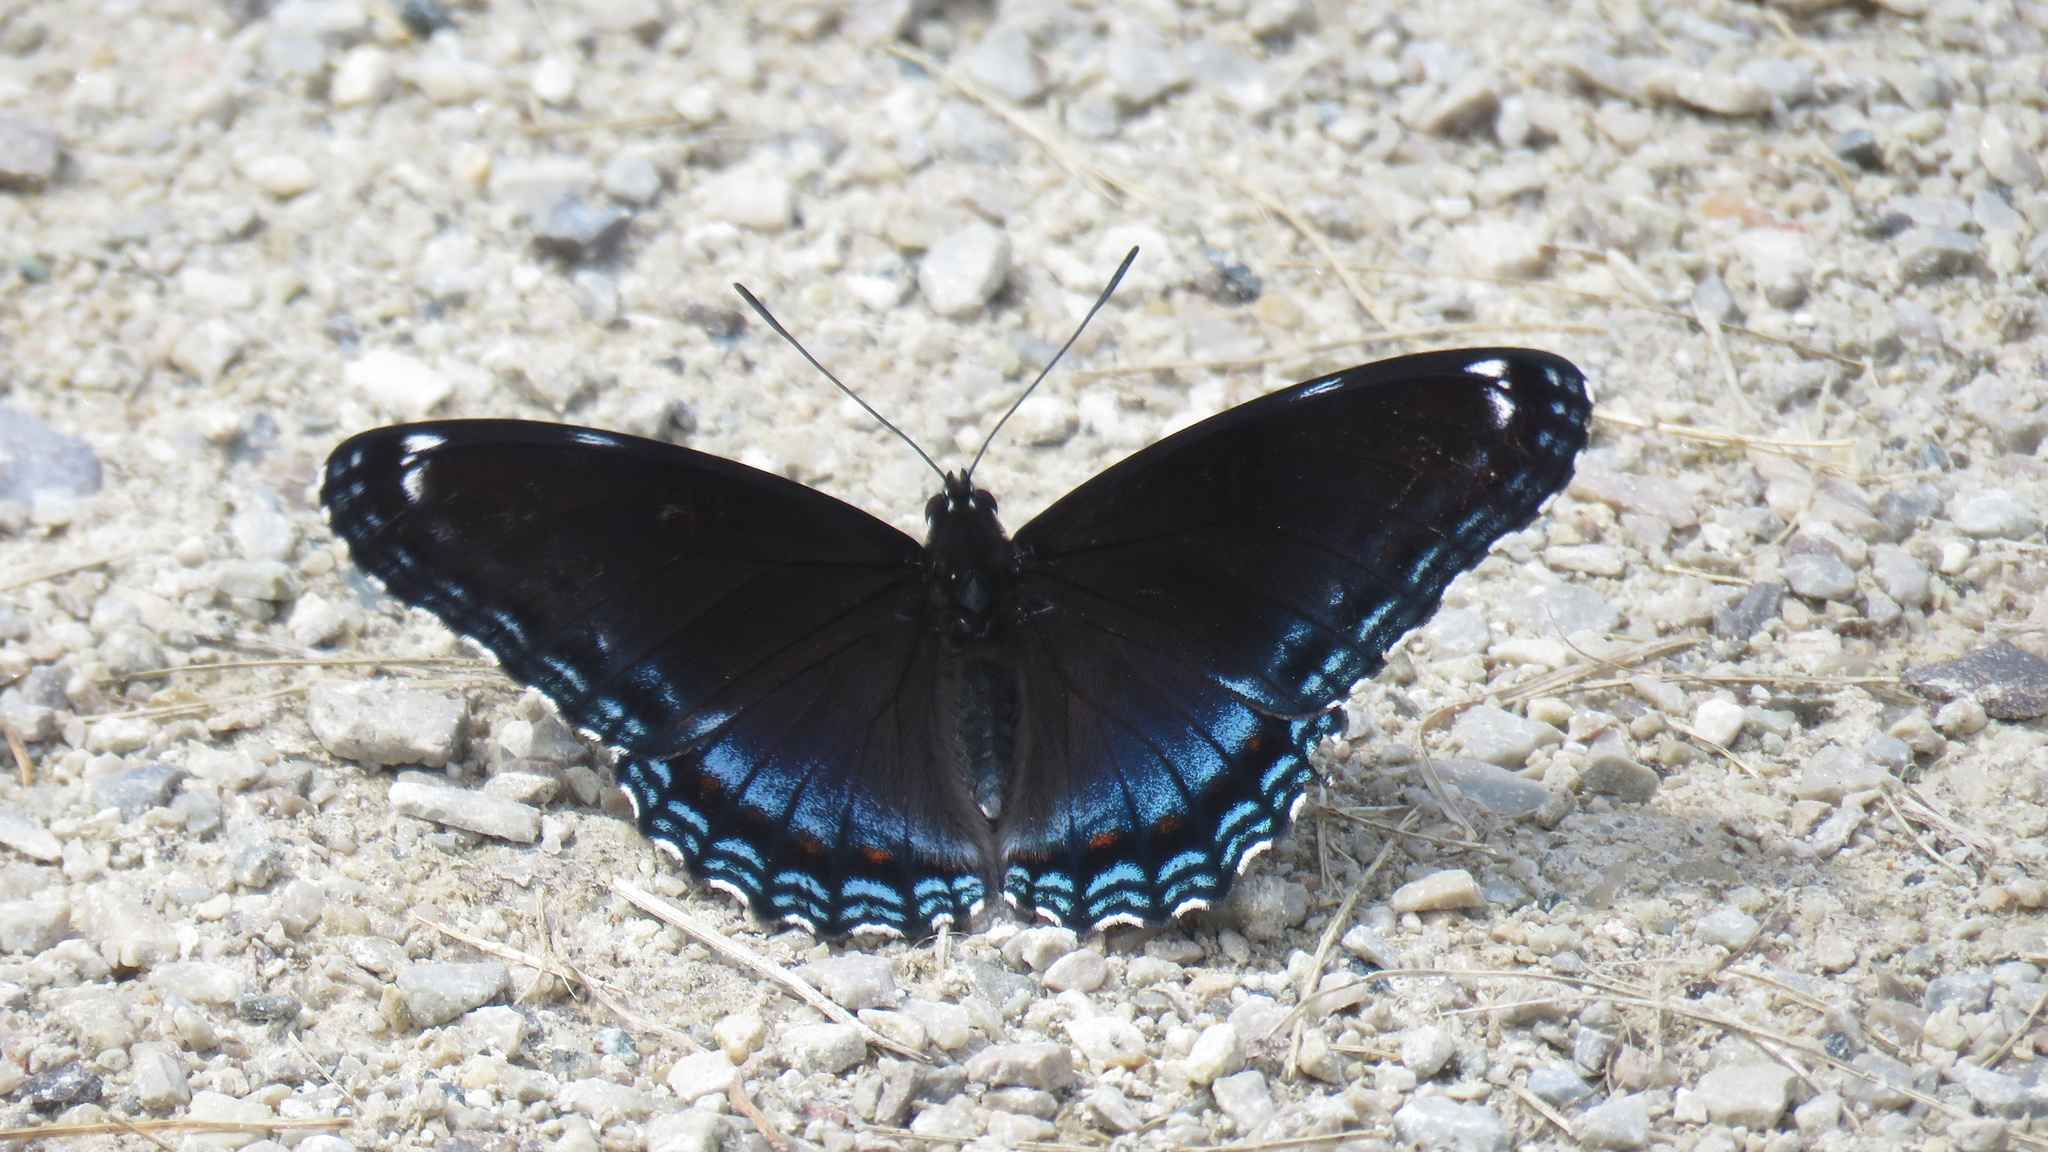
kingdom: Animalia
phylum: Arthropoda
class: Insecta
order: Lepidoptera
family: Nymphalidae
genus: Limenitis
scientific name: Limenitis astyanax
